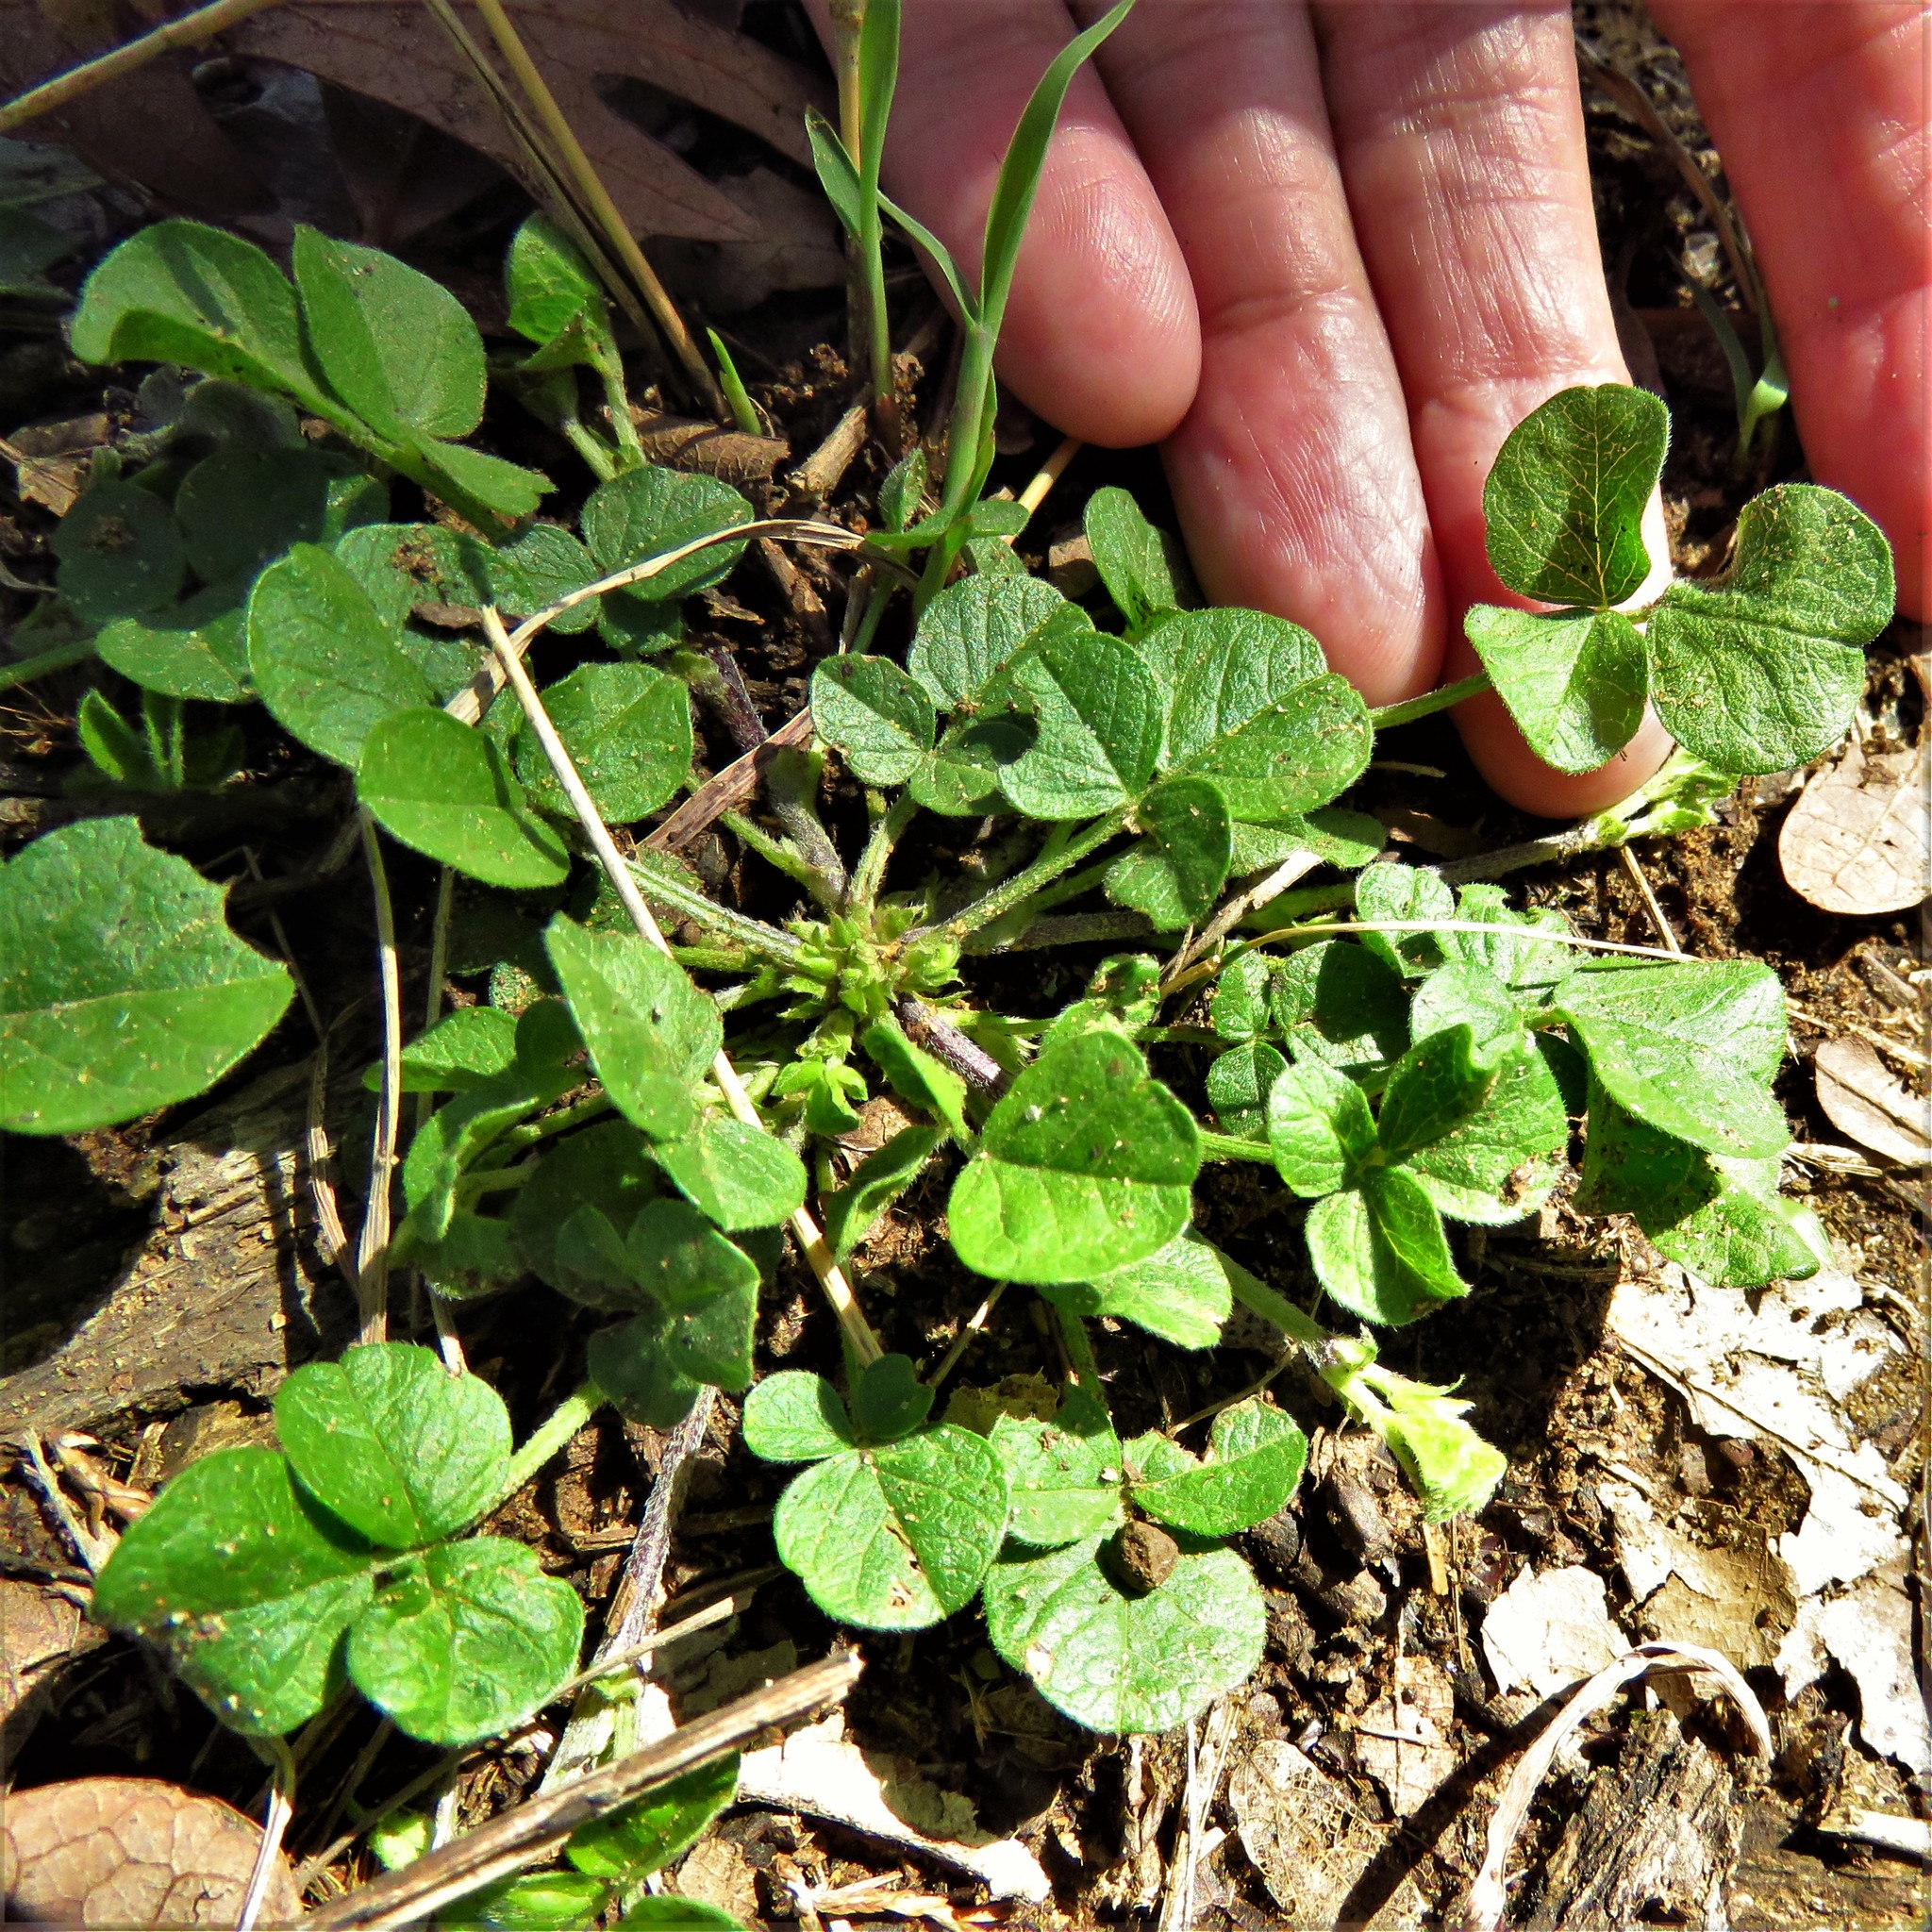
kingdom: Plantae
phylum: Tracheophyta
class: Magnoliopsida
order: Fabales
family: Fabaceae
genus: Pediomelum
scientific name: Pediomelum rhombifolium
